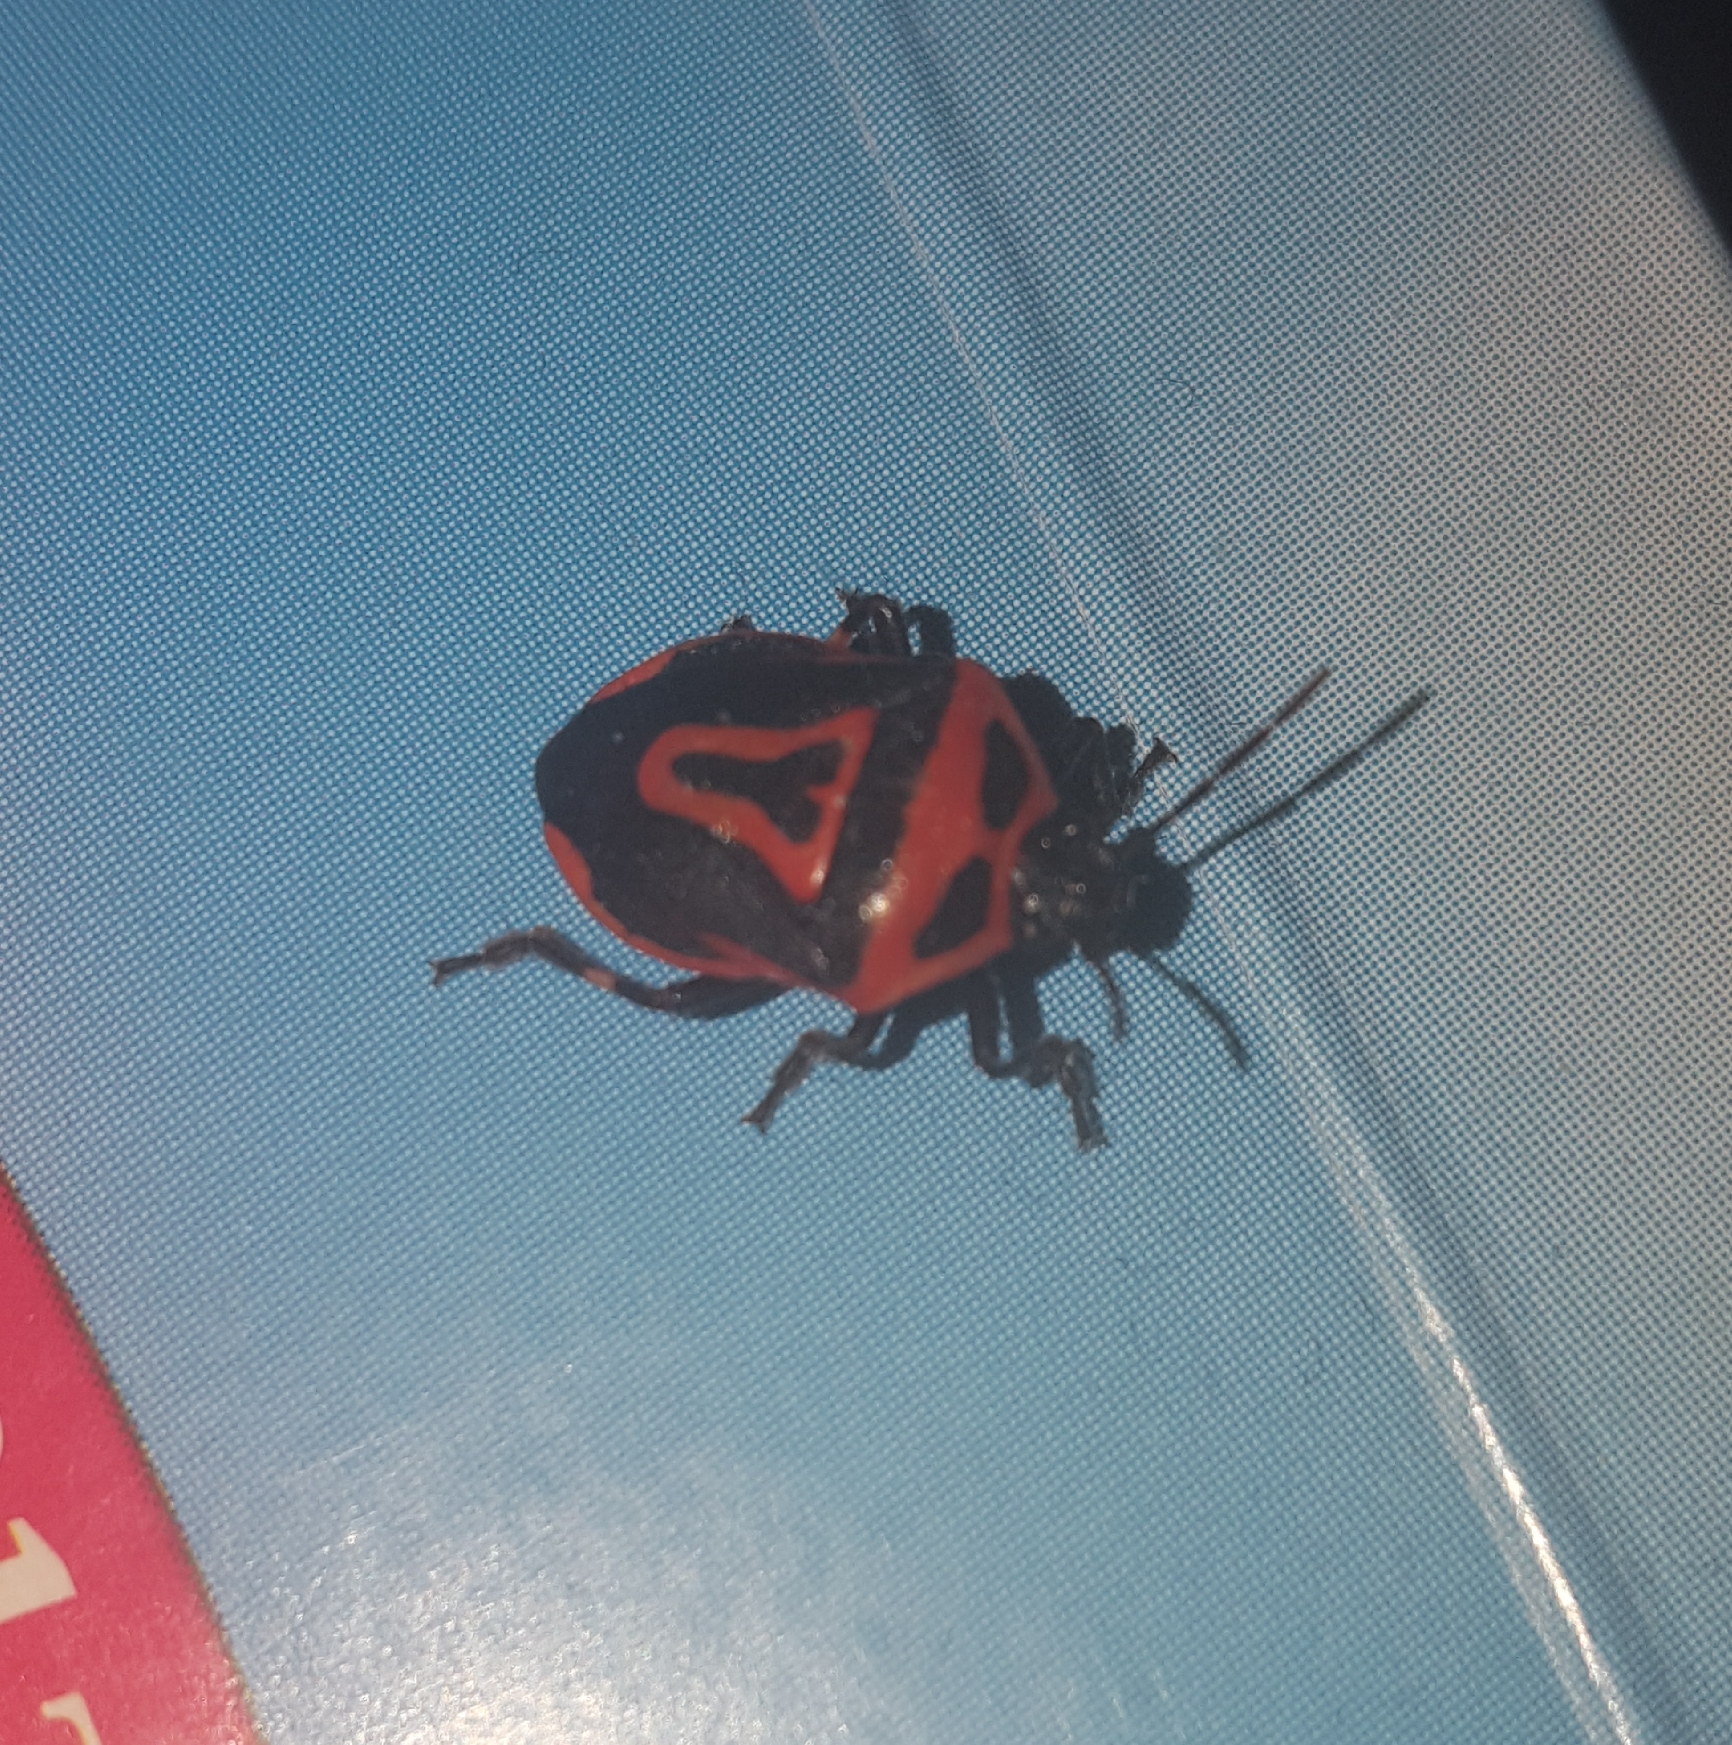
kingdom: Animalia
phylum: Arthropoda
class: Insecta
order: Hemiptera
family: Pentatomidae
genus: Perillus
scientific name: Perillus bioculatus
